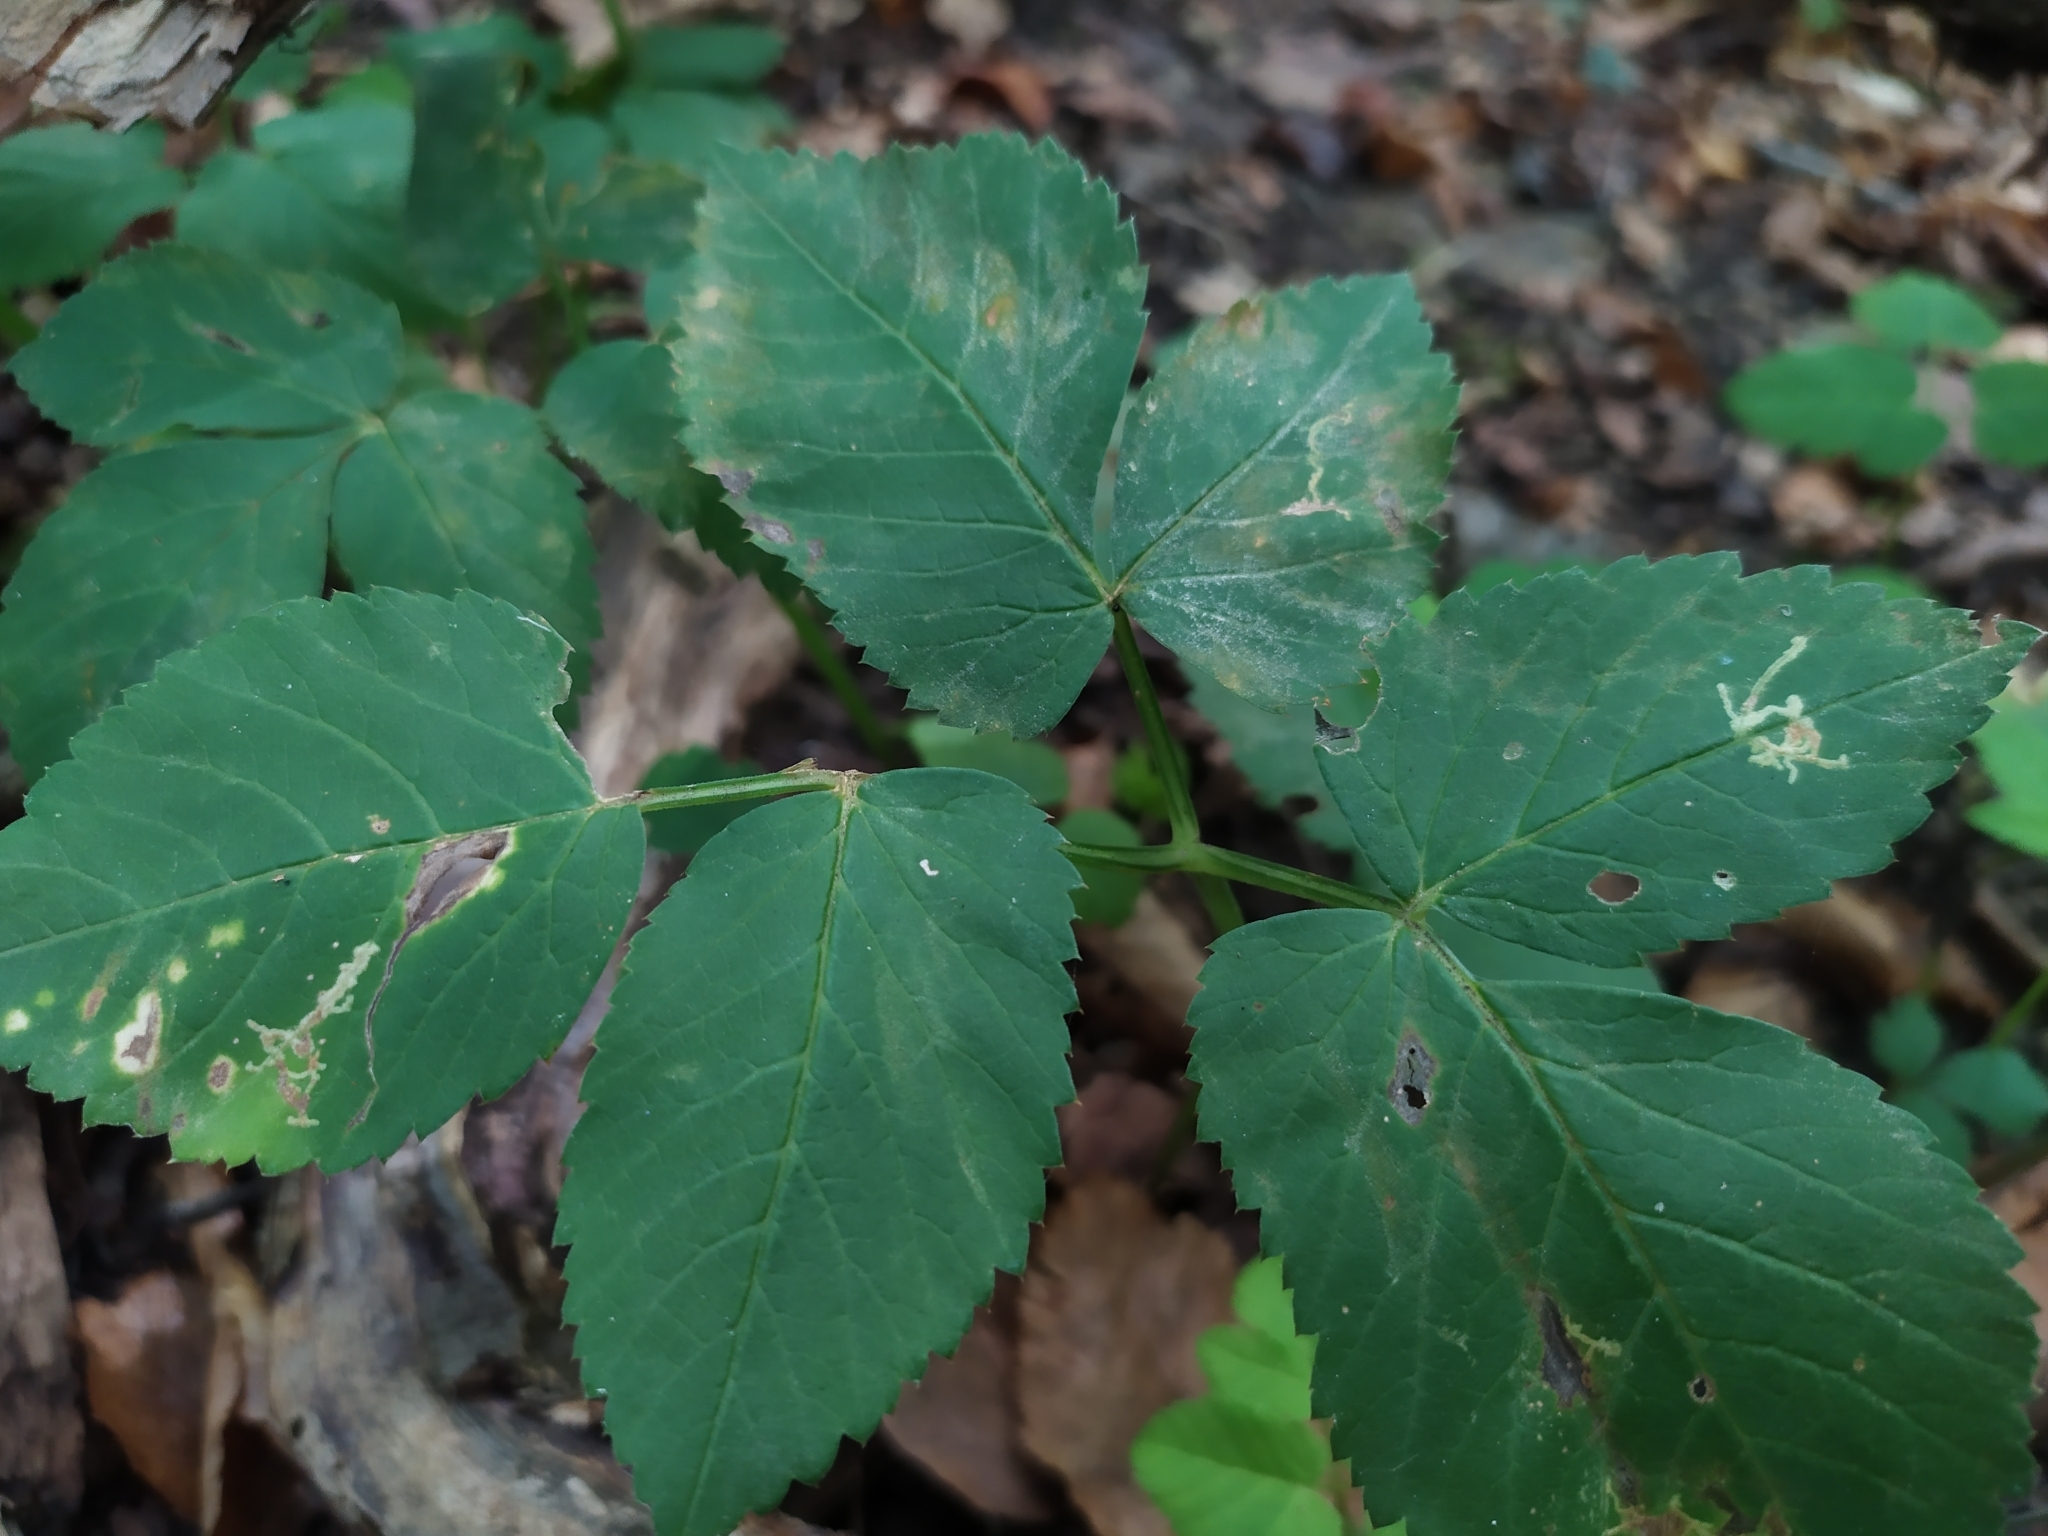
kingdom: Plantae
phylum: Tracheophyta
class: Magnoliopsida
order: Apiales
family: Apiaceae
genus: Aegopodium
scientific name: Aegopodium podagraria
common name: Ground-elder
